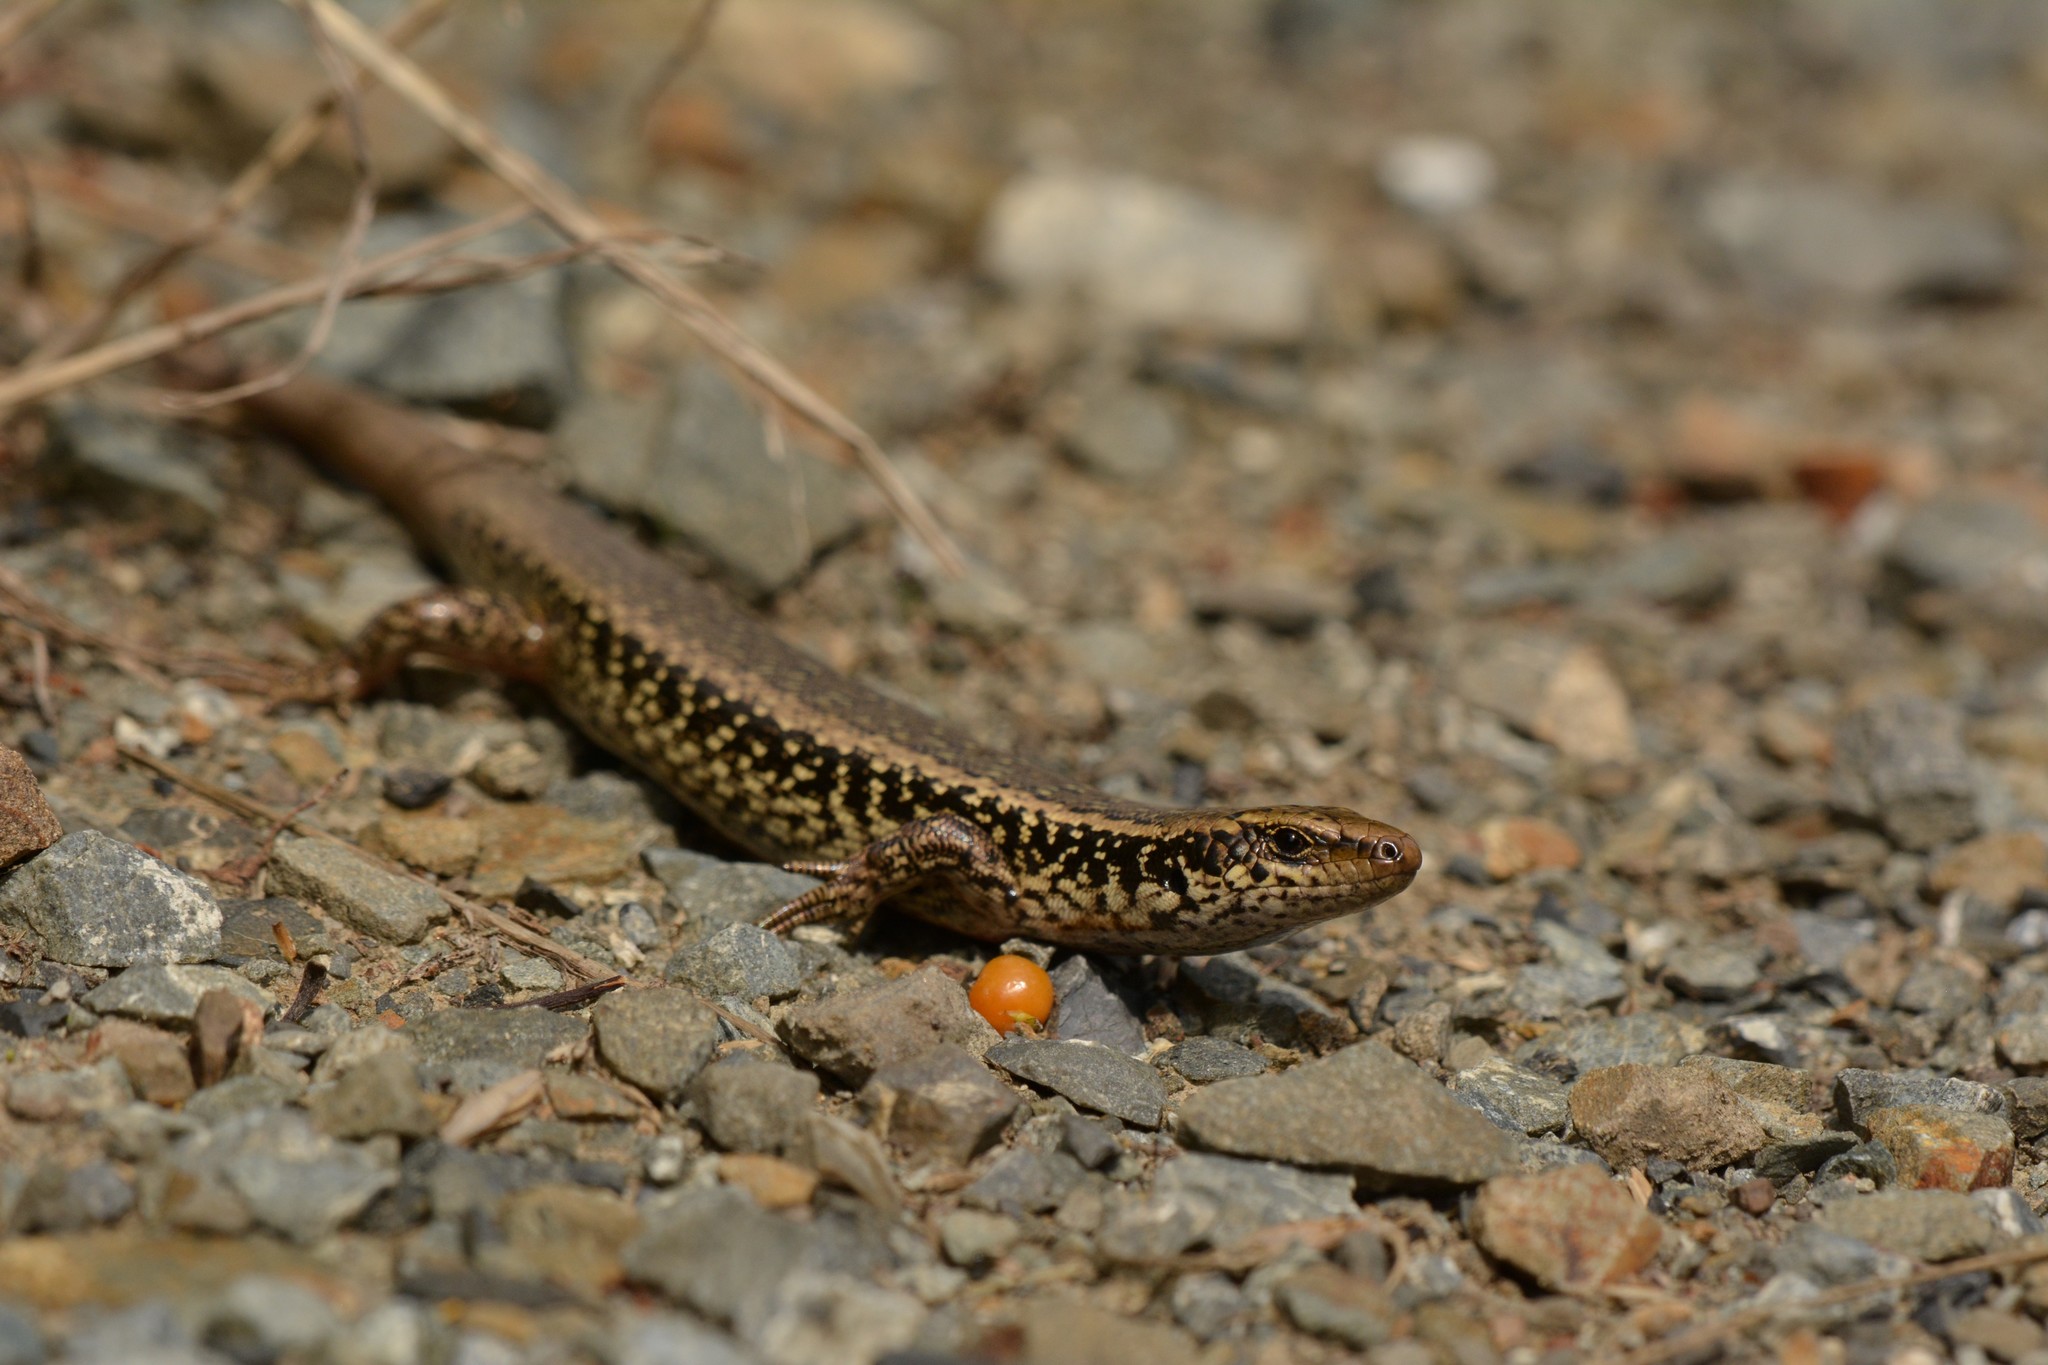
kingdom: Animalia
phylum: Chordata
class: Squamata
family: Scincidae
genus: Oligosoma
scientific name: Oligosoma kokowai
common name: Northern spotted skink
